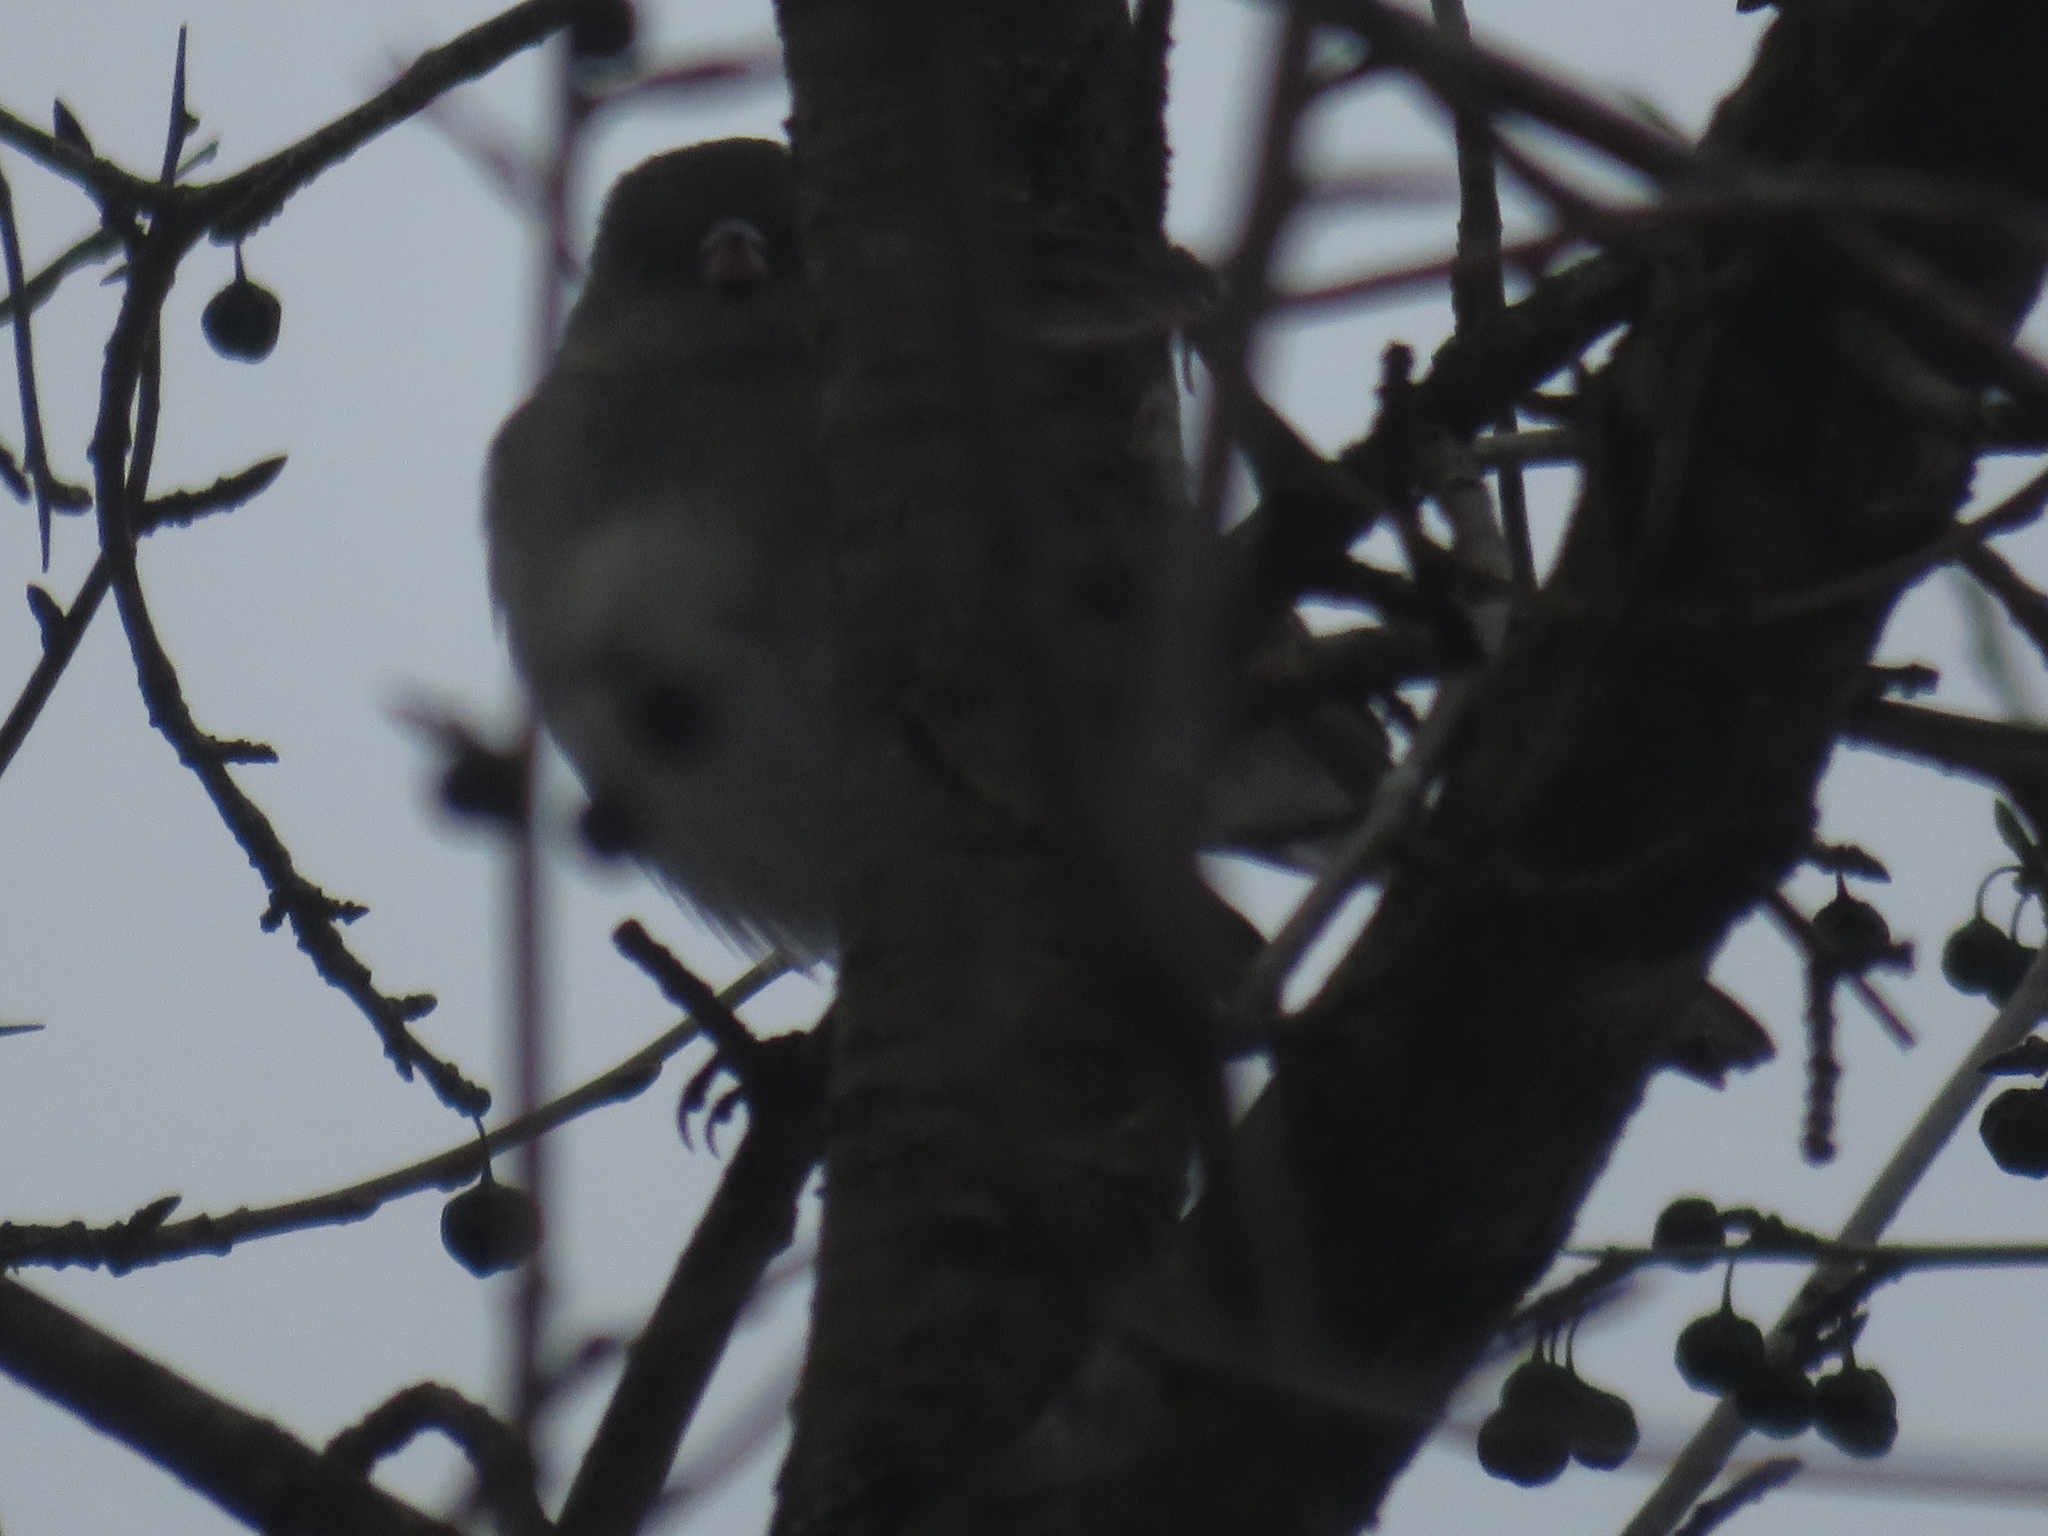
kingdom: Animalia
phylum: Chordata
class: Aves
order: Passeriformes
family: Passerellidae
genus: Junco
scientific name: Junco hyemalis
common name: Dark-eyed junco
